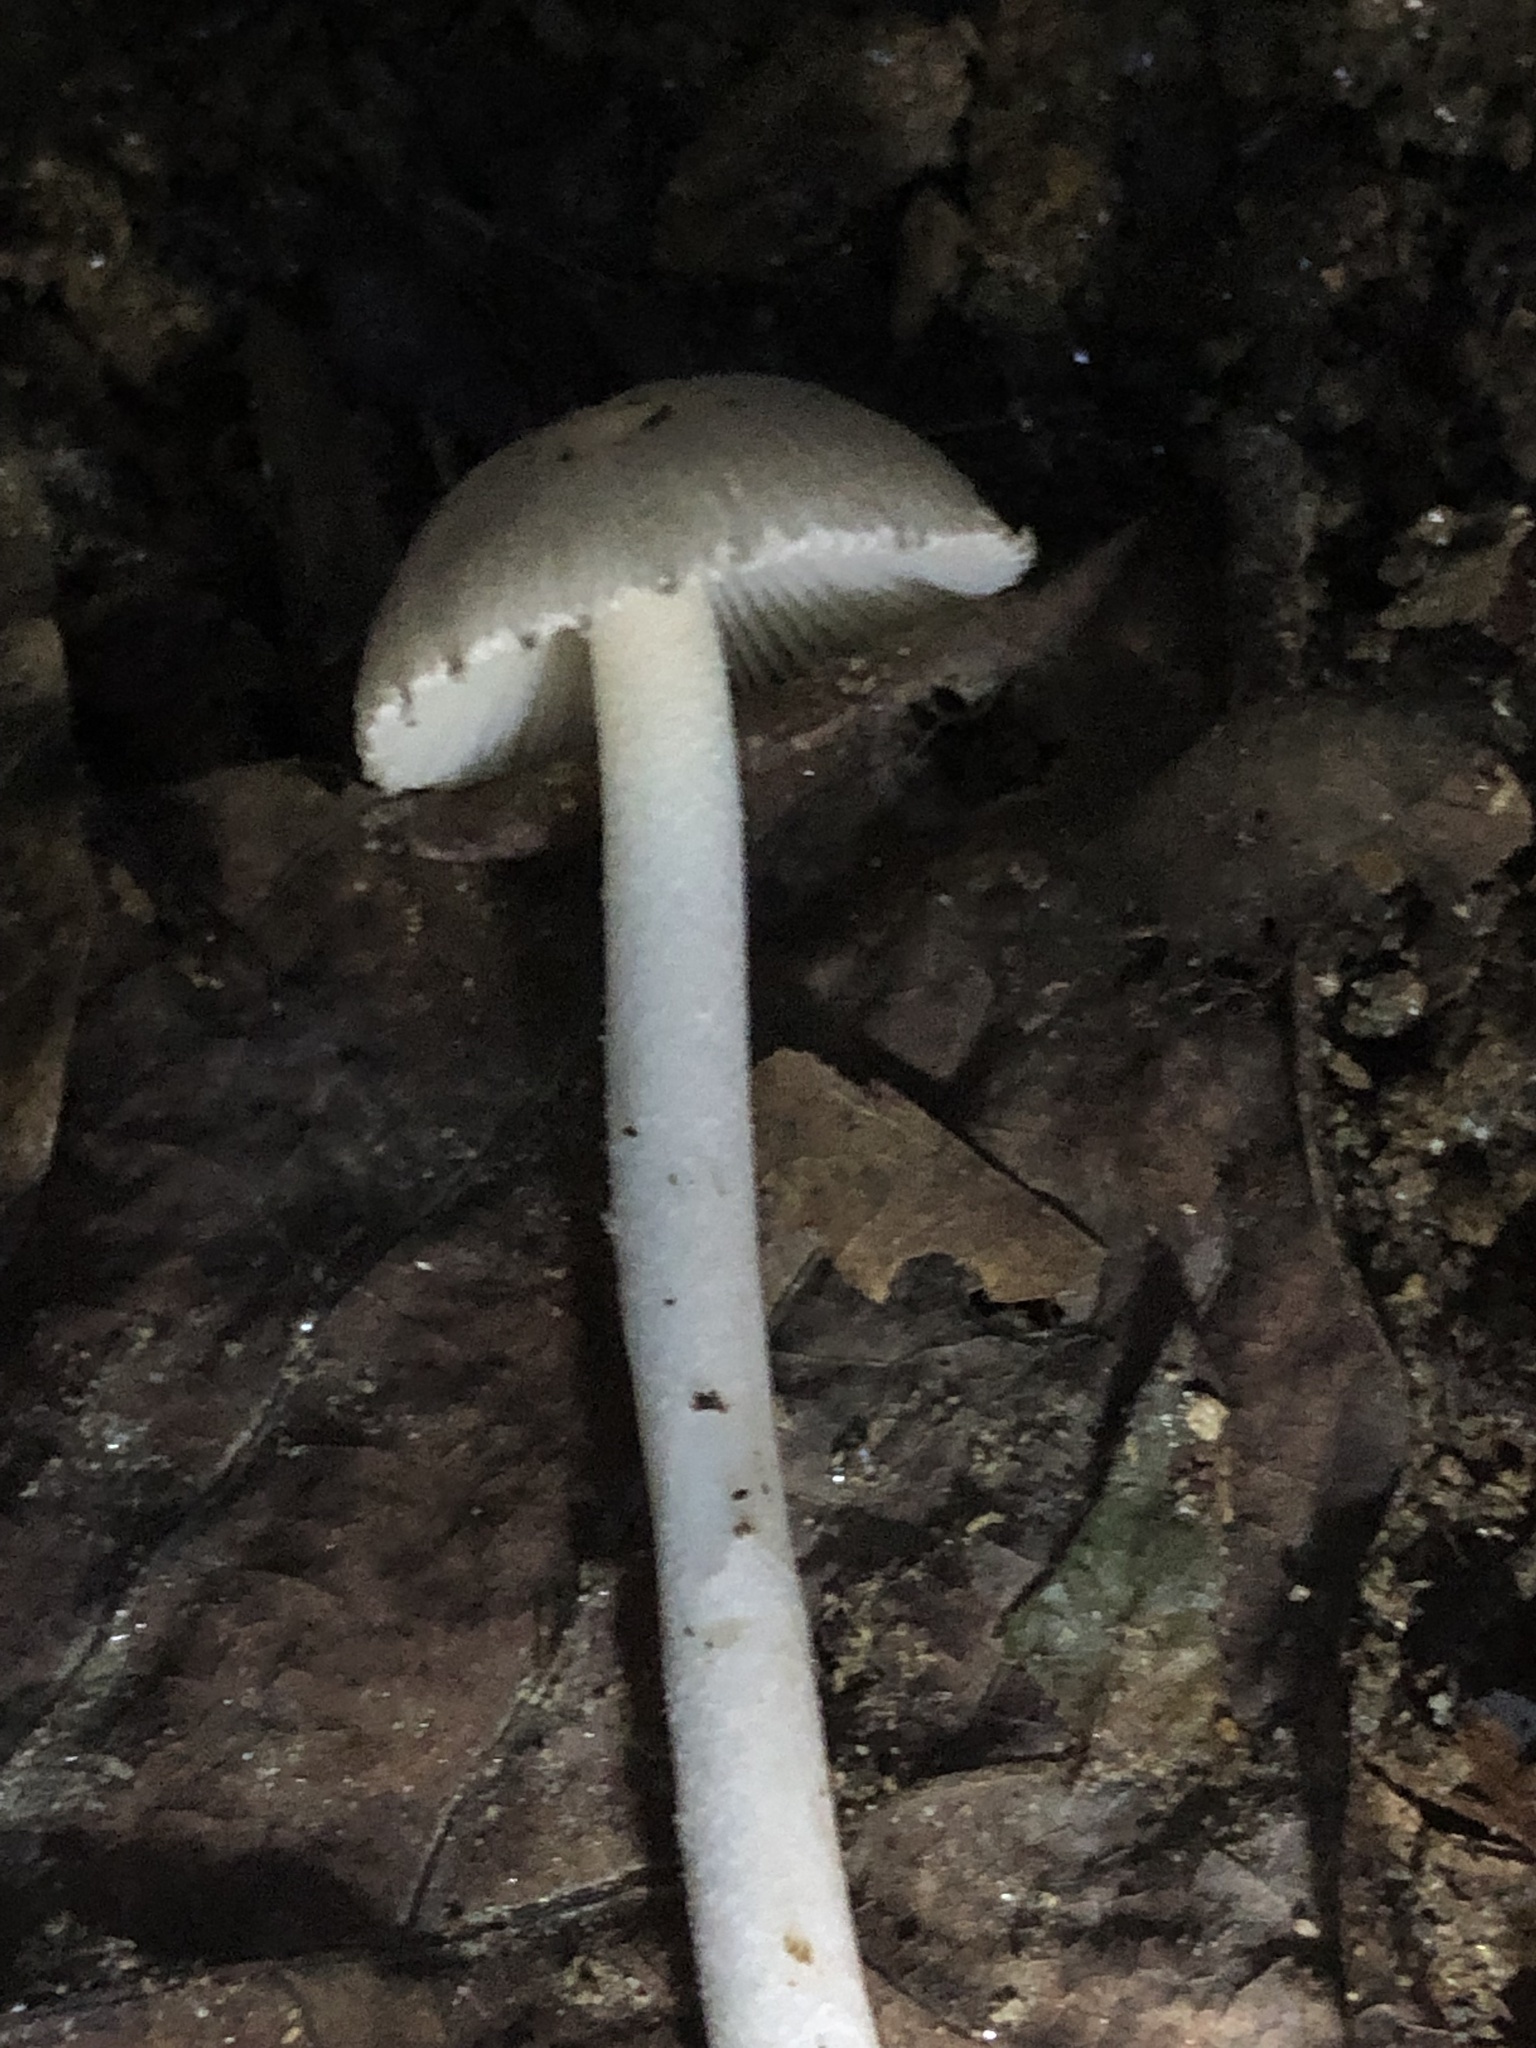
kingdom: Fungi
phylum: Basidiomycota
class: Agaricomycetes
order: Agaricales
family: Amanitaceae
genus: Amanita
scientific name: Amanita farinosa
